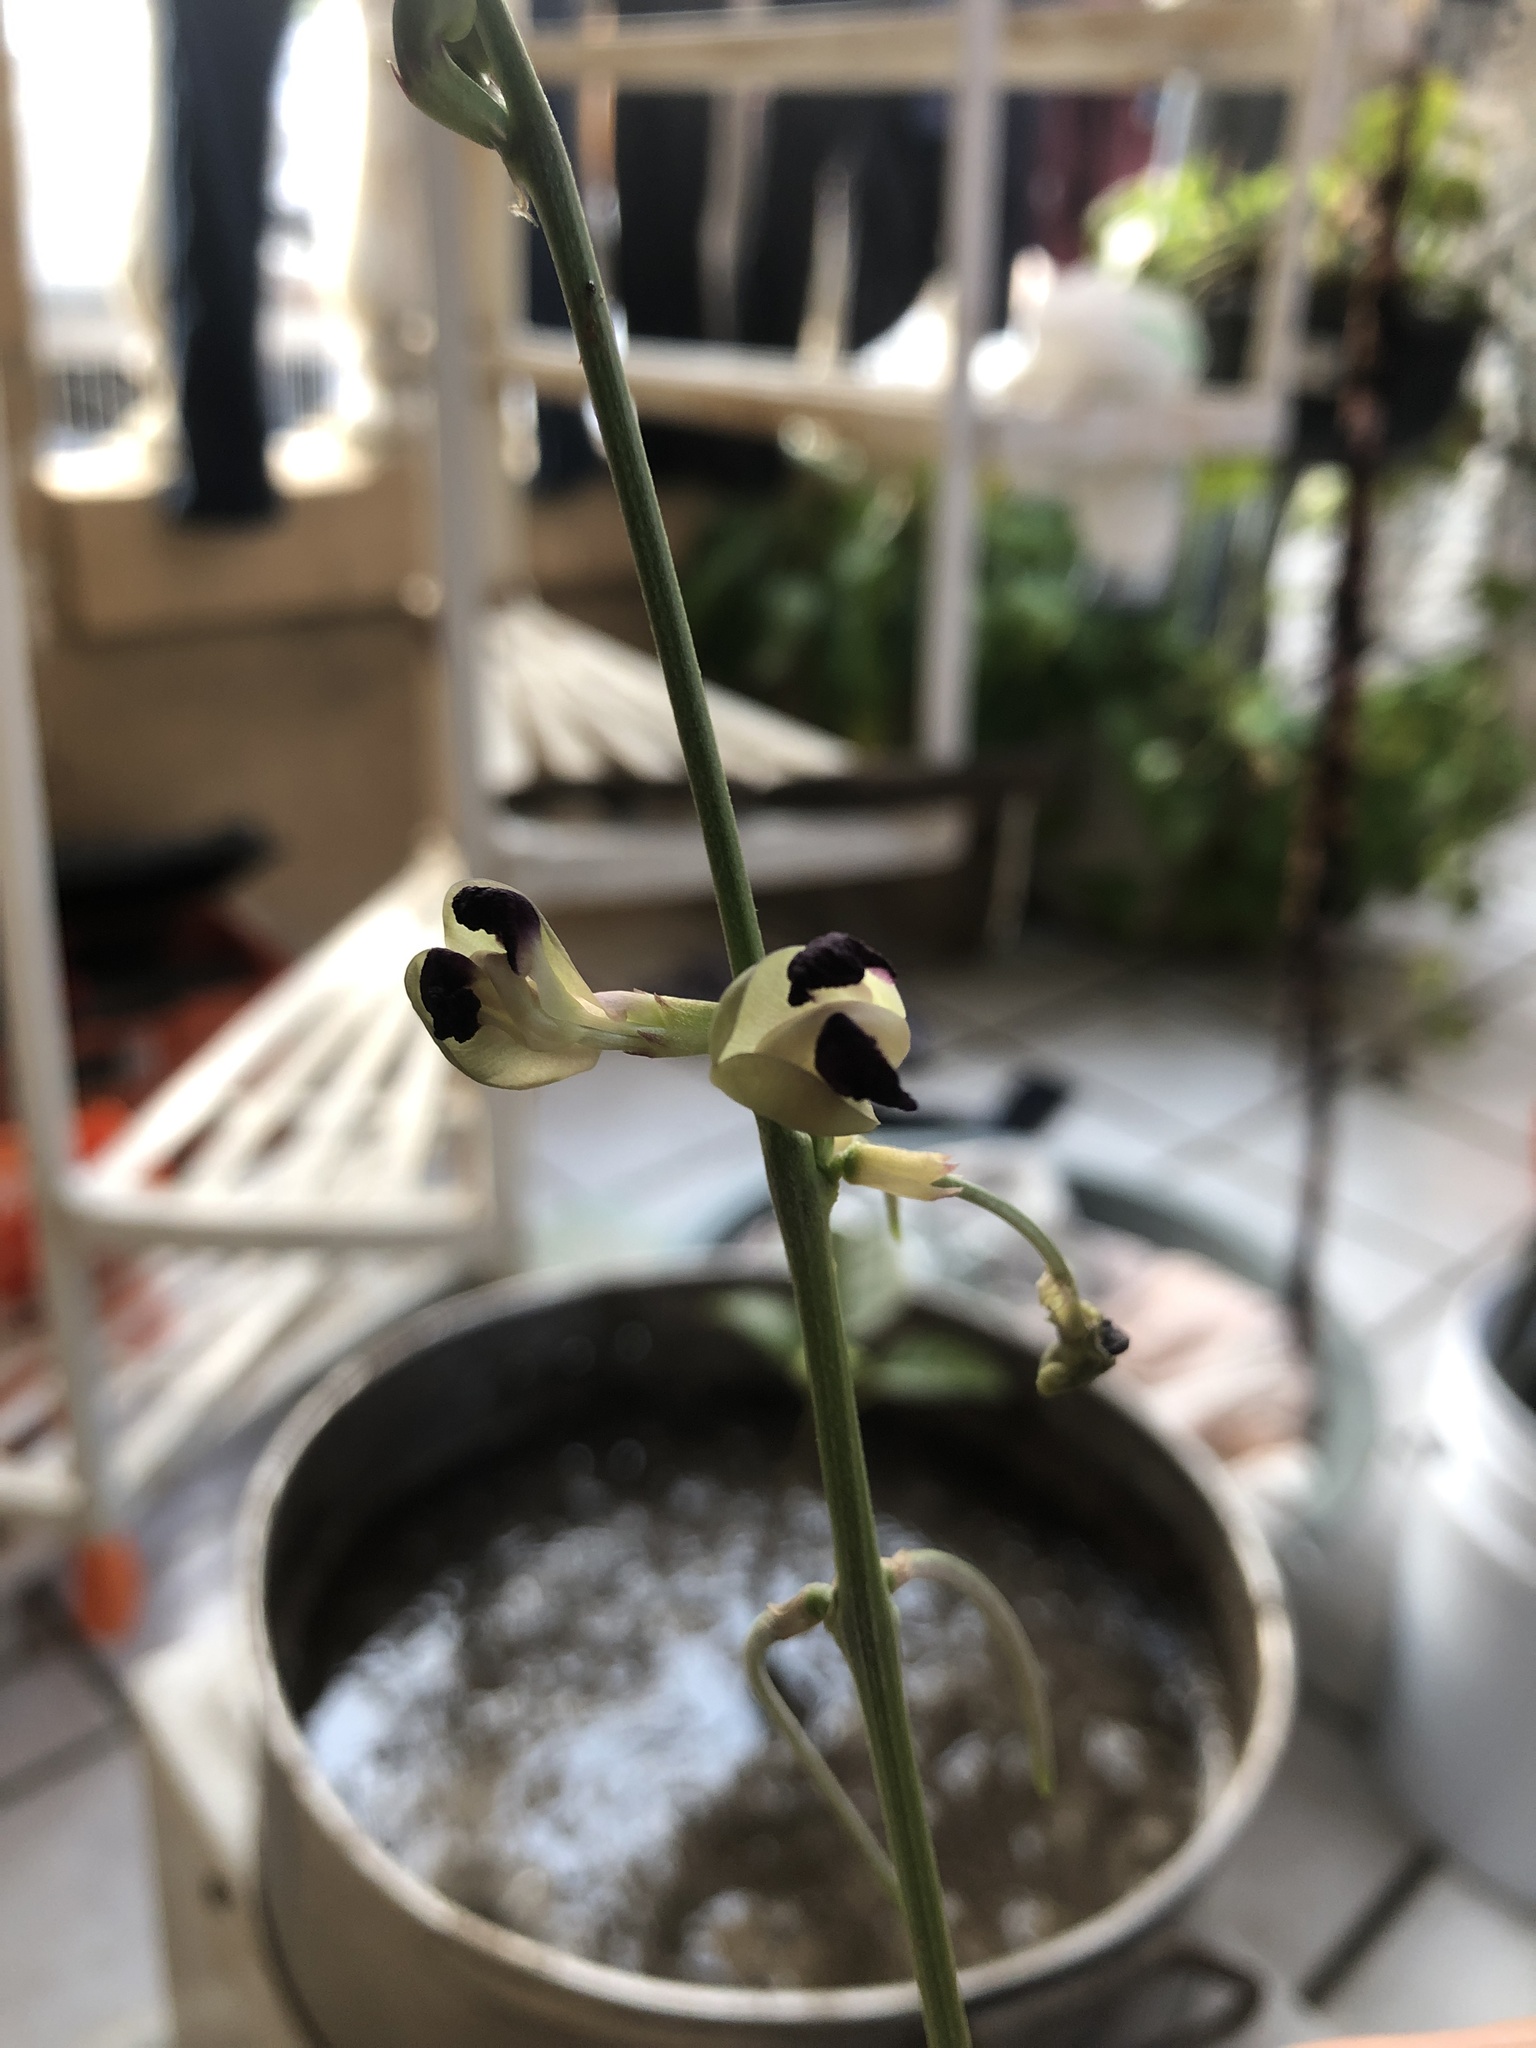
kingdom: Plantae
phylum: Tracheophyta
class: Magnoliopsida
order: Fabales
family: Fabaceae
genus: Macroptilium
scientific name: Macroptilium atropurpureum
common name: Purple bushbean
